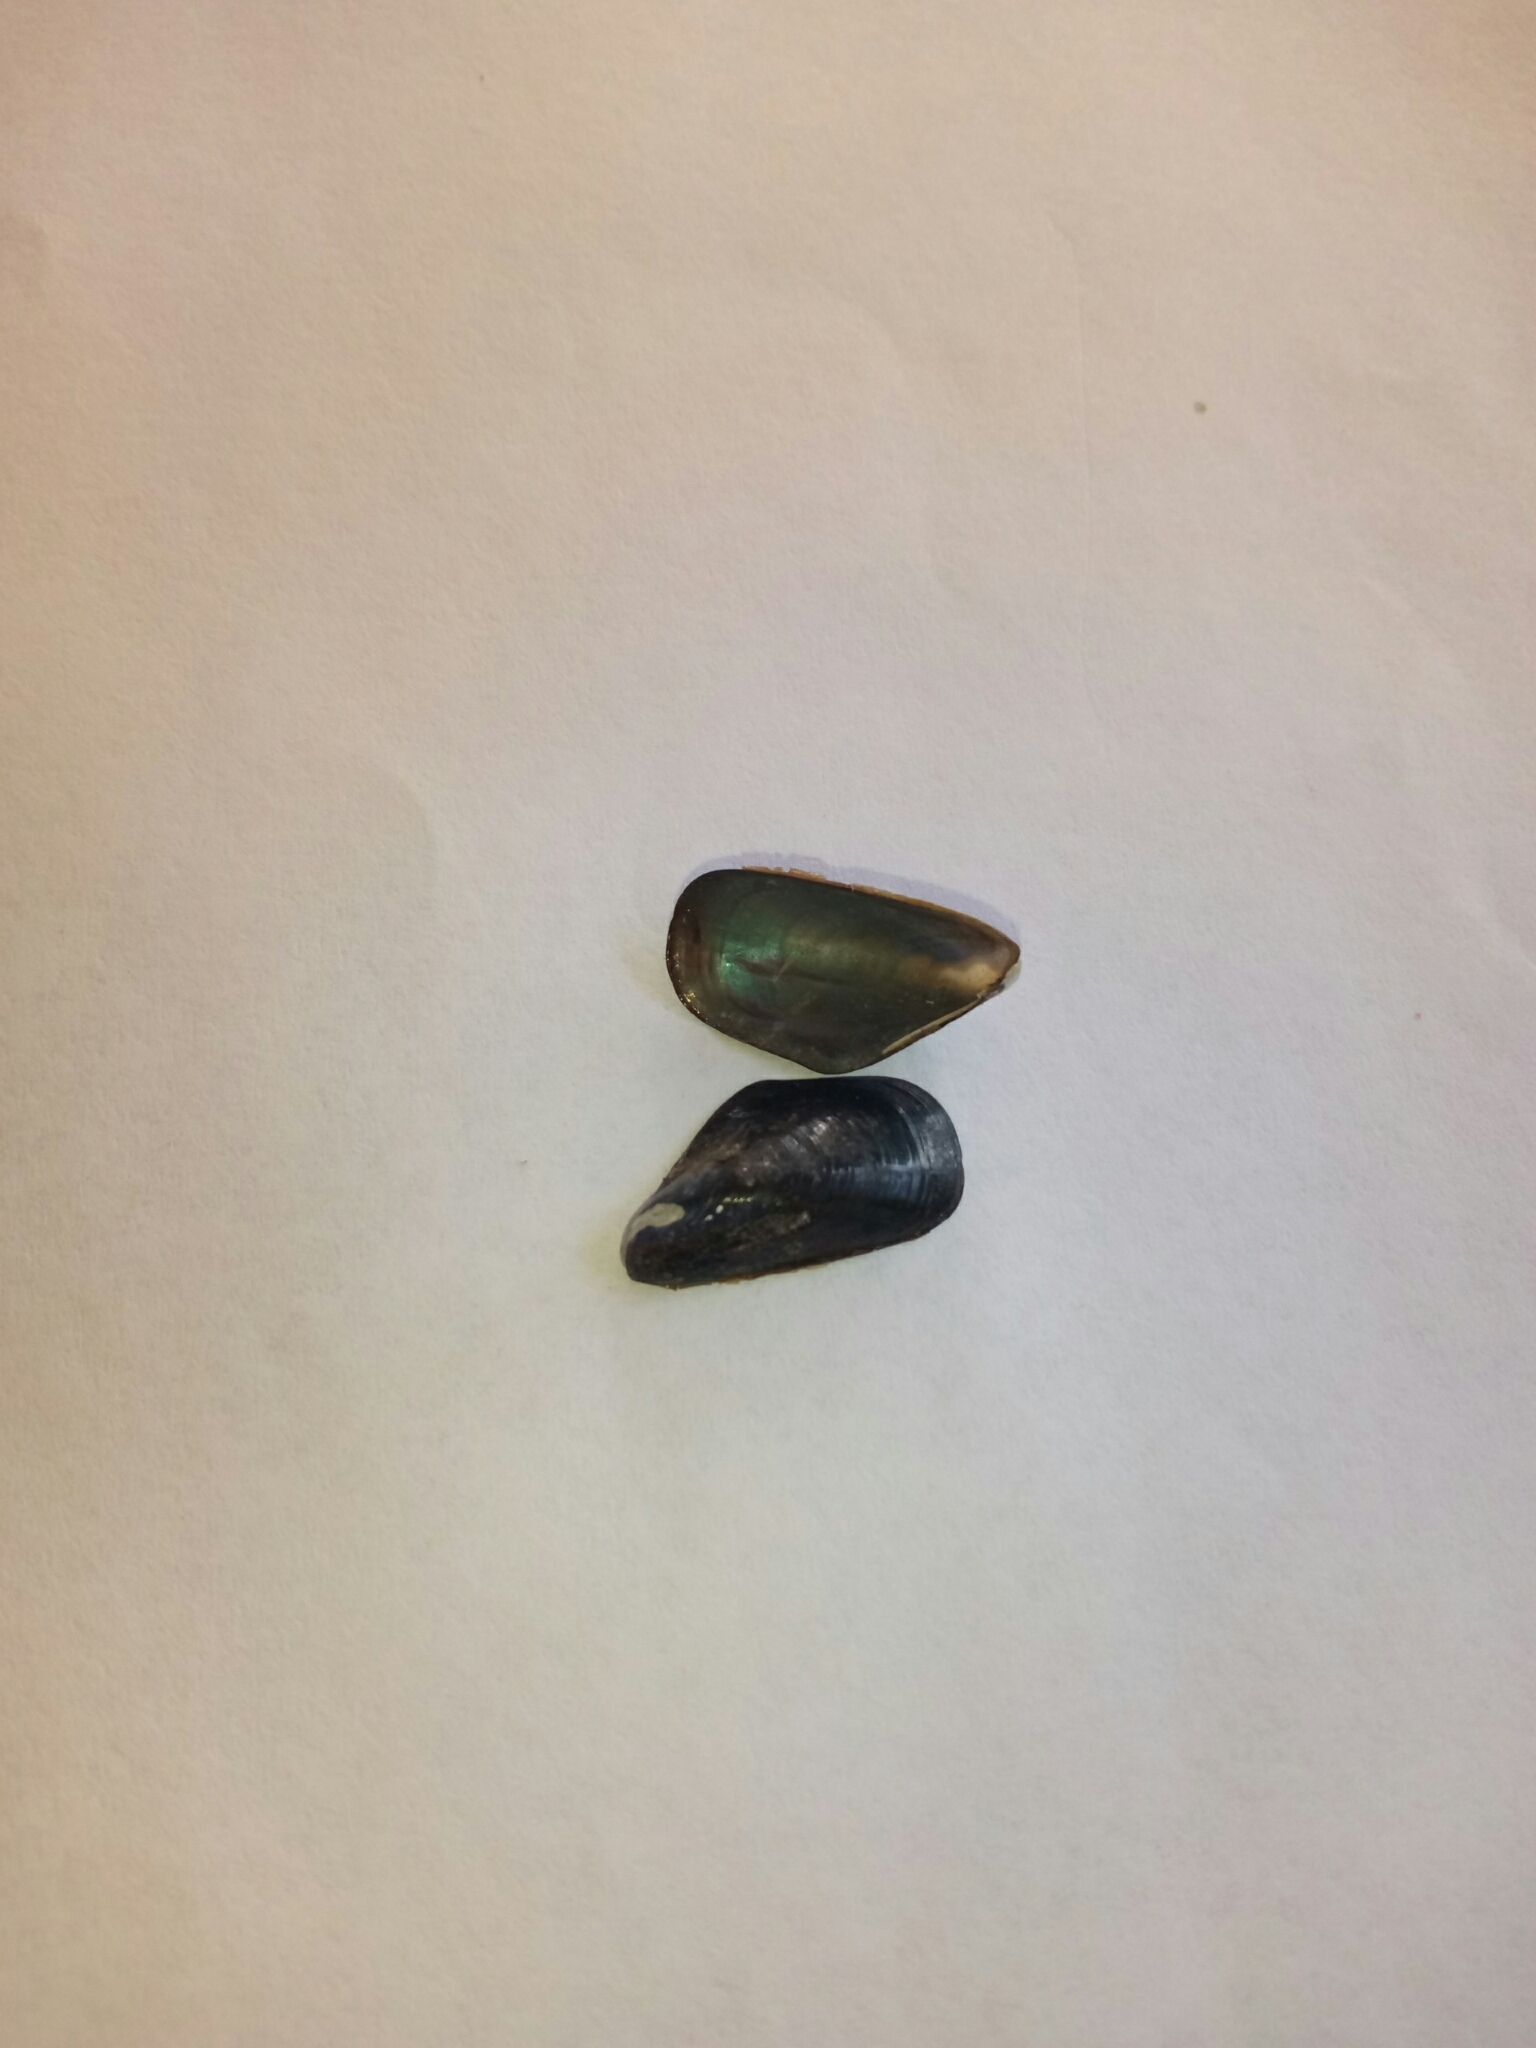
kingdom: Animalia
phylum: Mollusca
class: Bivalvia
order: Mytilida
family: Mytilidae
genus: Xenostrobus
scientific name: Xenostrobus neozelanicus
